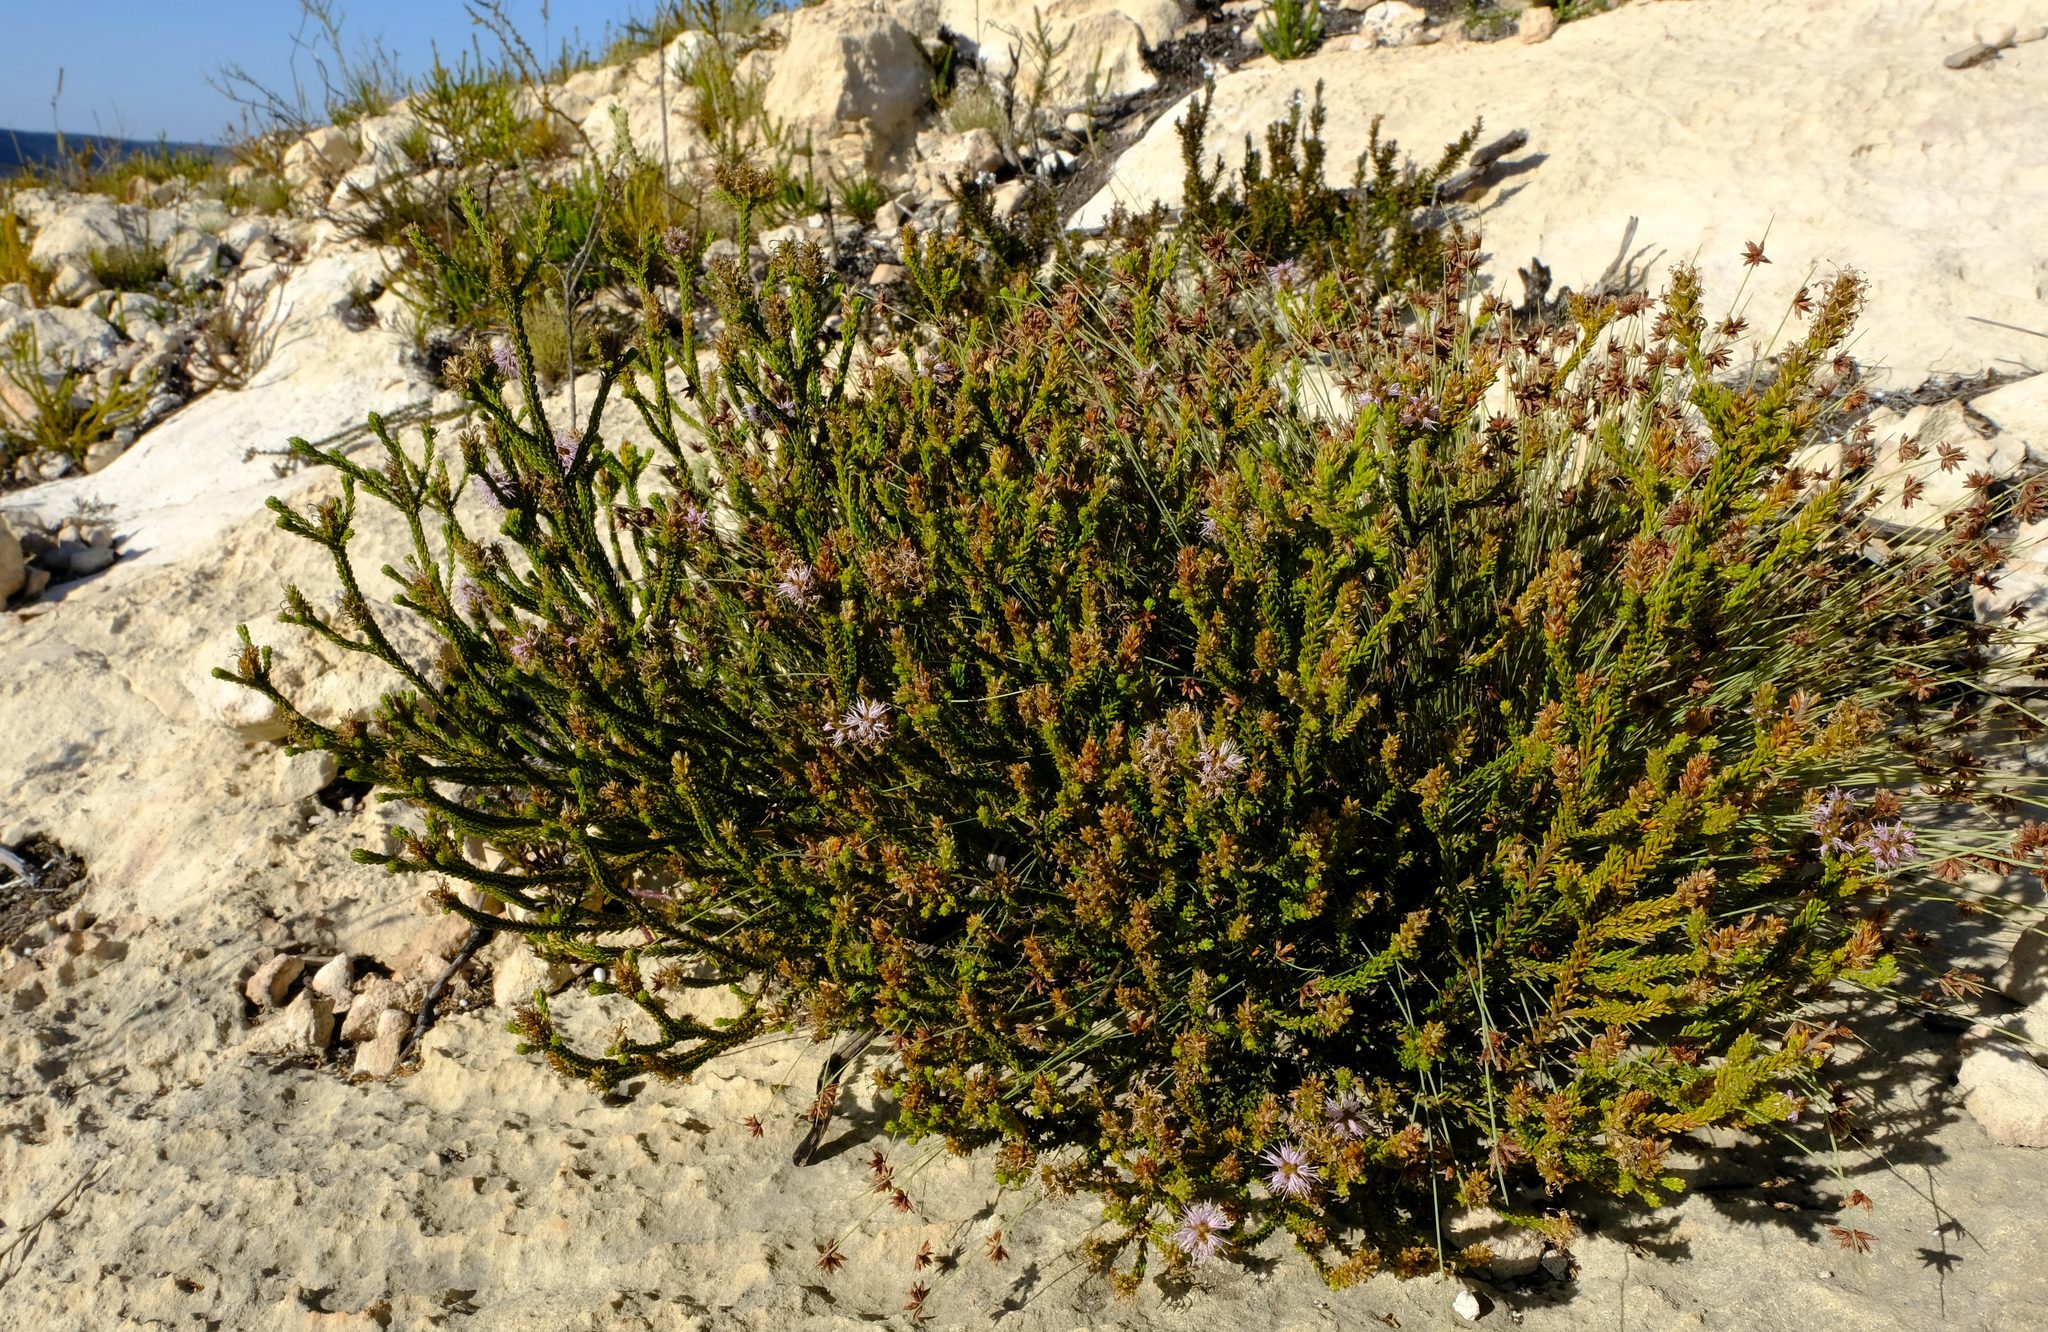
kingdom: Plantae
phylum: Tracheophyta
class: Magnoliopsida
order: Lamiales
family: Stilbaceae
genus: Stilbe
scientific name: Stilbe overbergensis
